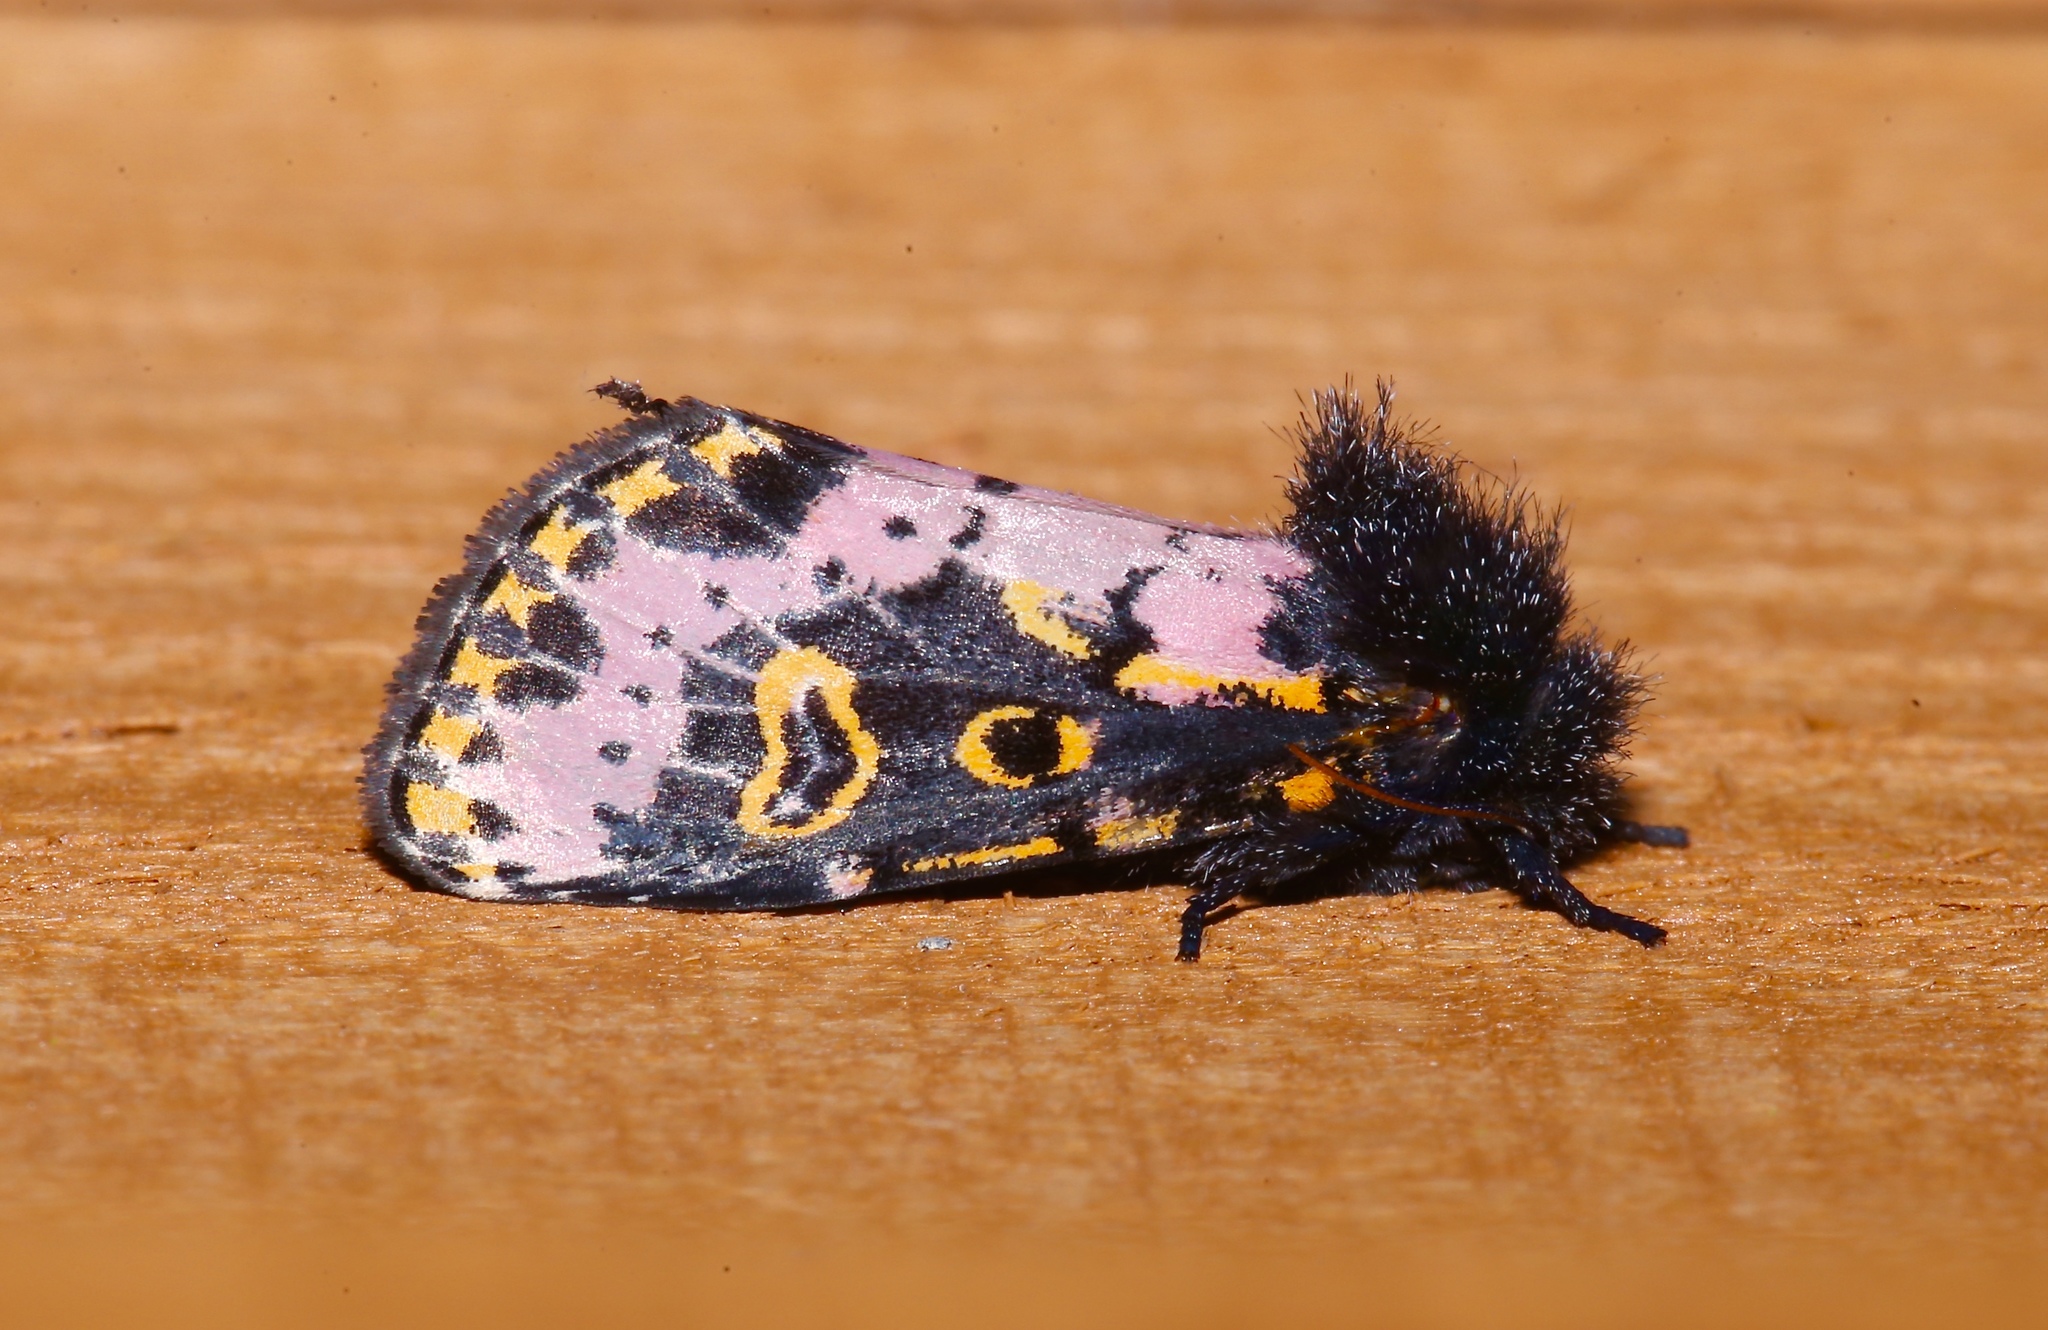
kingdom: Animalia
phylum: Arthropoda
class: Insecta
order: Lepidoptera
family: Noctuidae
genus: Xanthopastis
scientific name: Xanthopastis regnatrix
